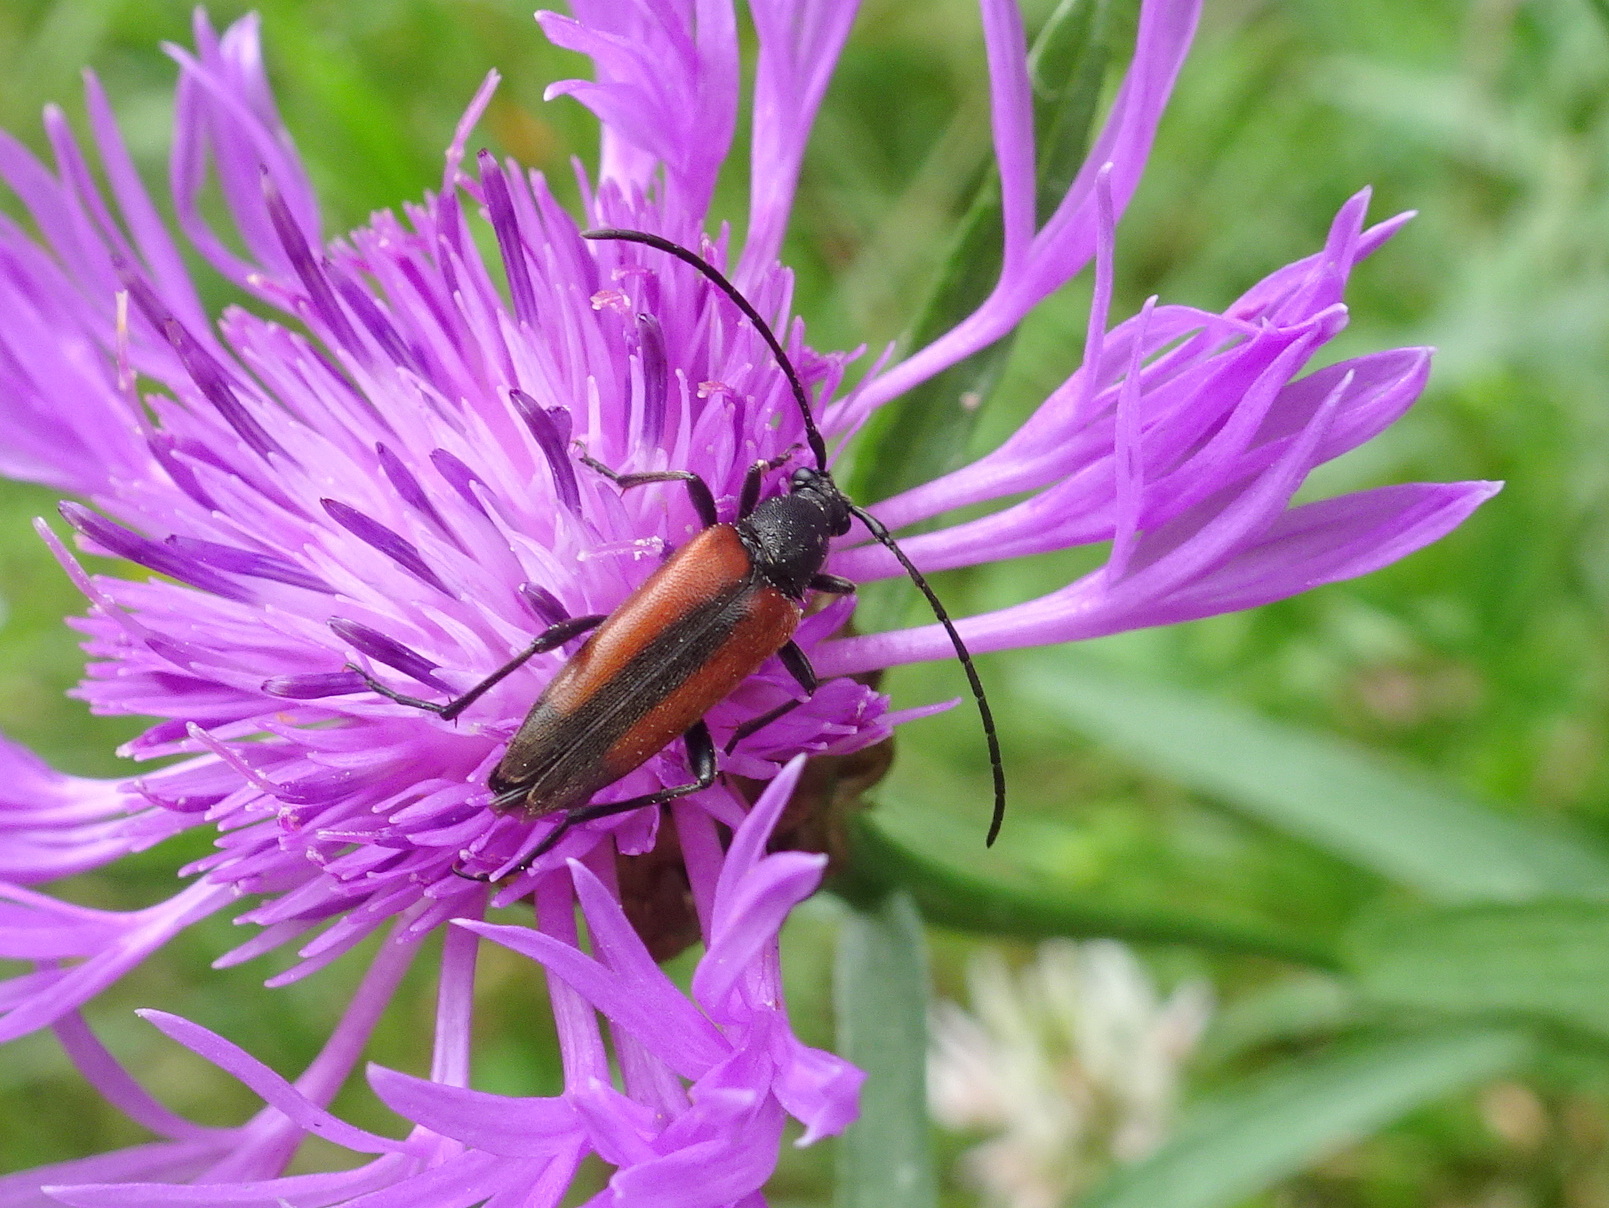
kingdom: Animalia
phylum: Arthropoda
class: Insecta
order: Coleoptera
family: Cerambycidae
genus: Stenurella
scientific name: Stenurella melanura
